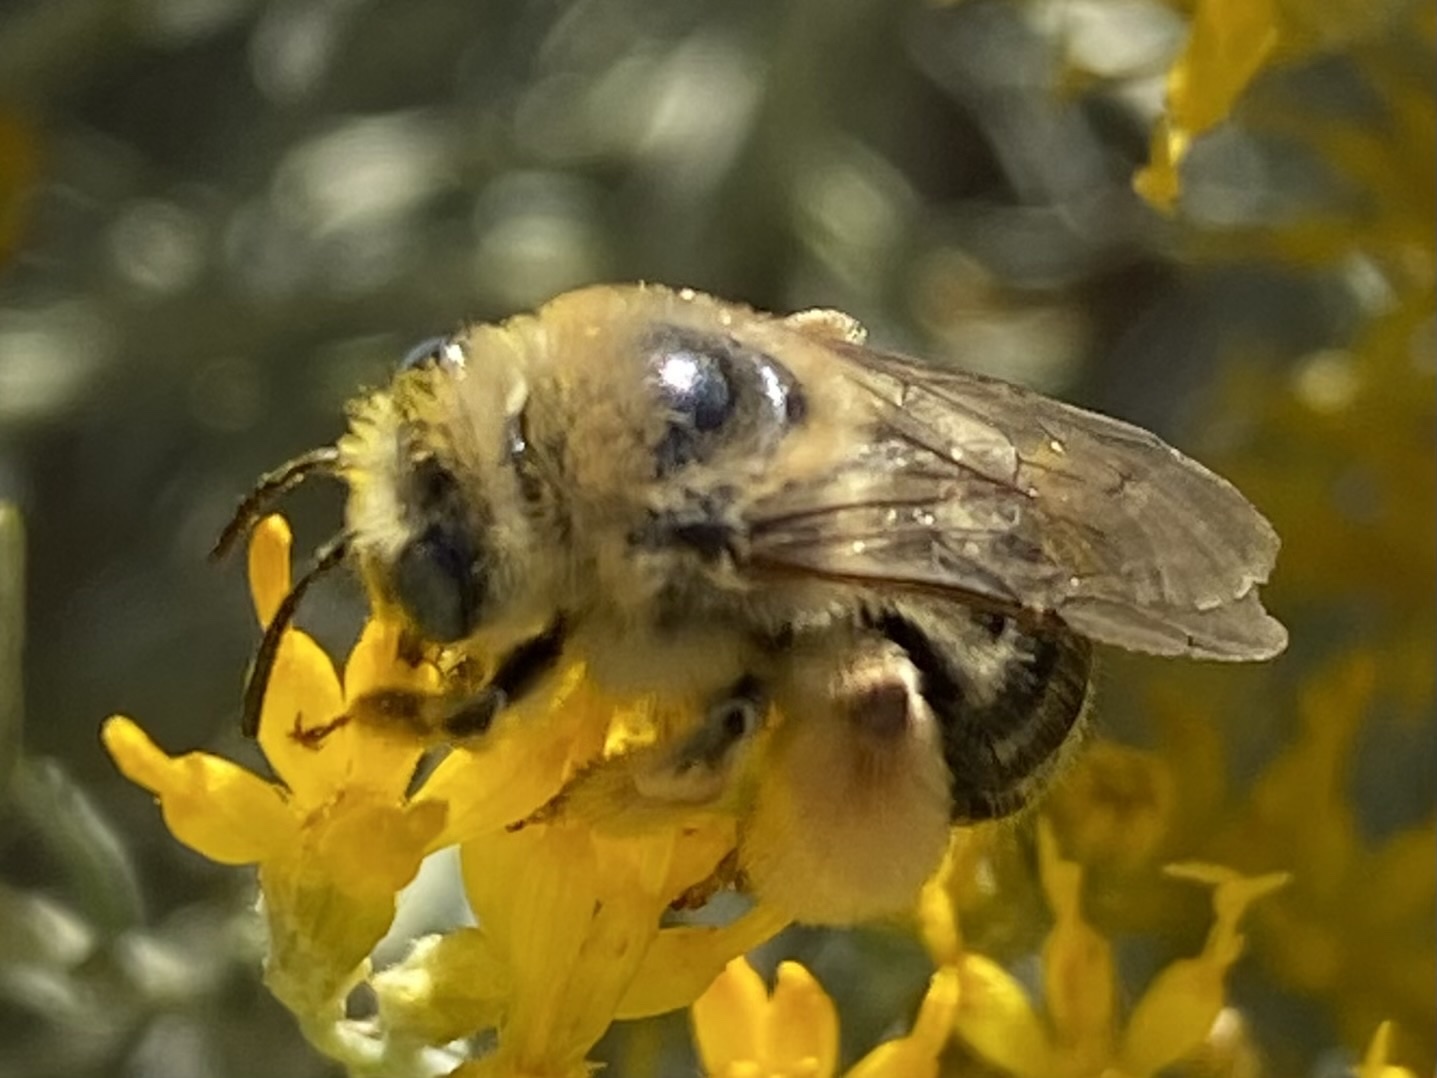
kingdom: Animalia
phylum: Arthropoda
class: Insecta
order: Hymenoptera
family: Apidae
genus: Melissodes
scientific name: Melissodes
